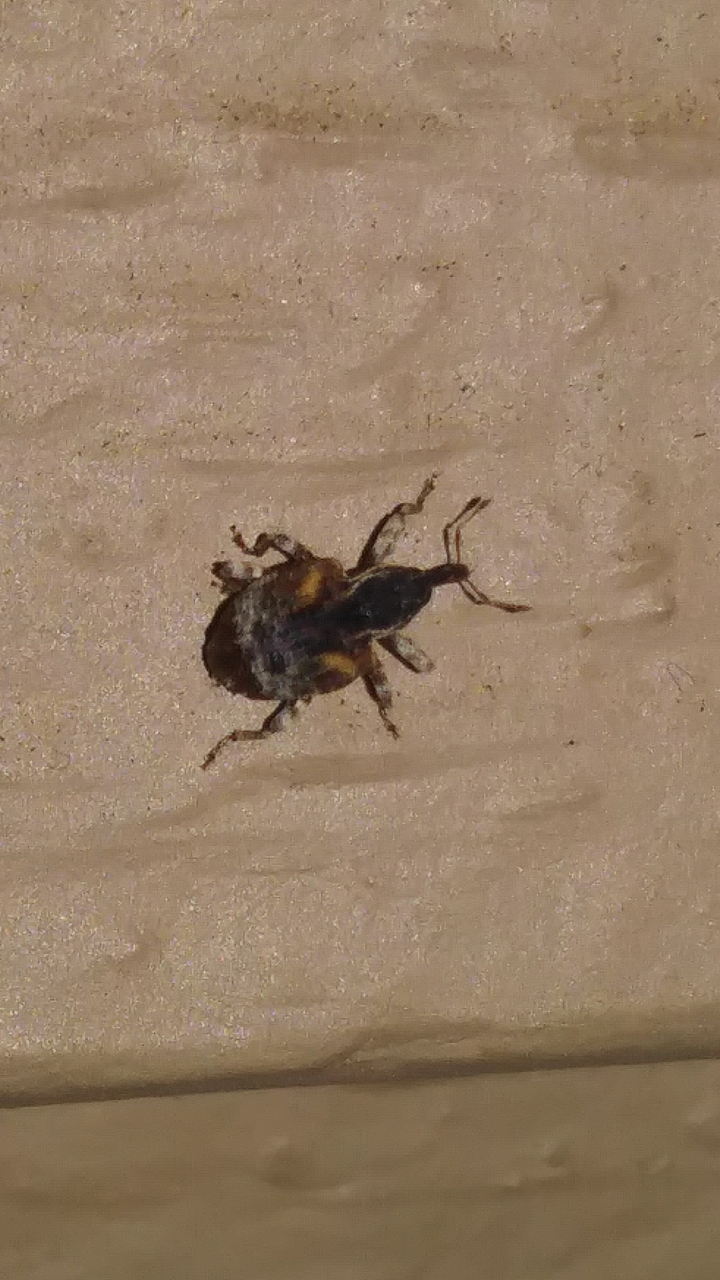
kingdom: Animalia
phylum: Arthropoda
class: Insecta
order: Coleoptera
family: Curculionidae
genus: Conotrachelus
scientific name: Conotrachelus anaglypticus
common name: Cambium curculio
